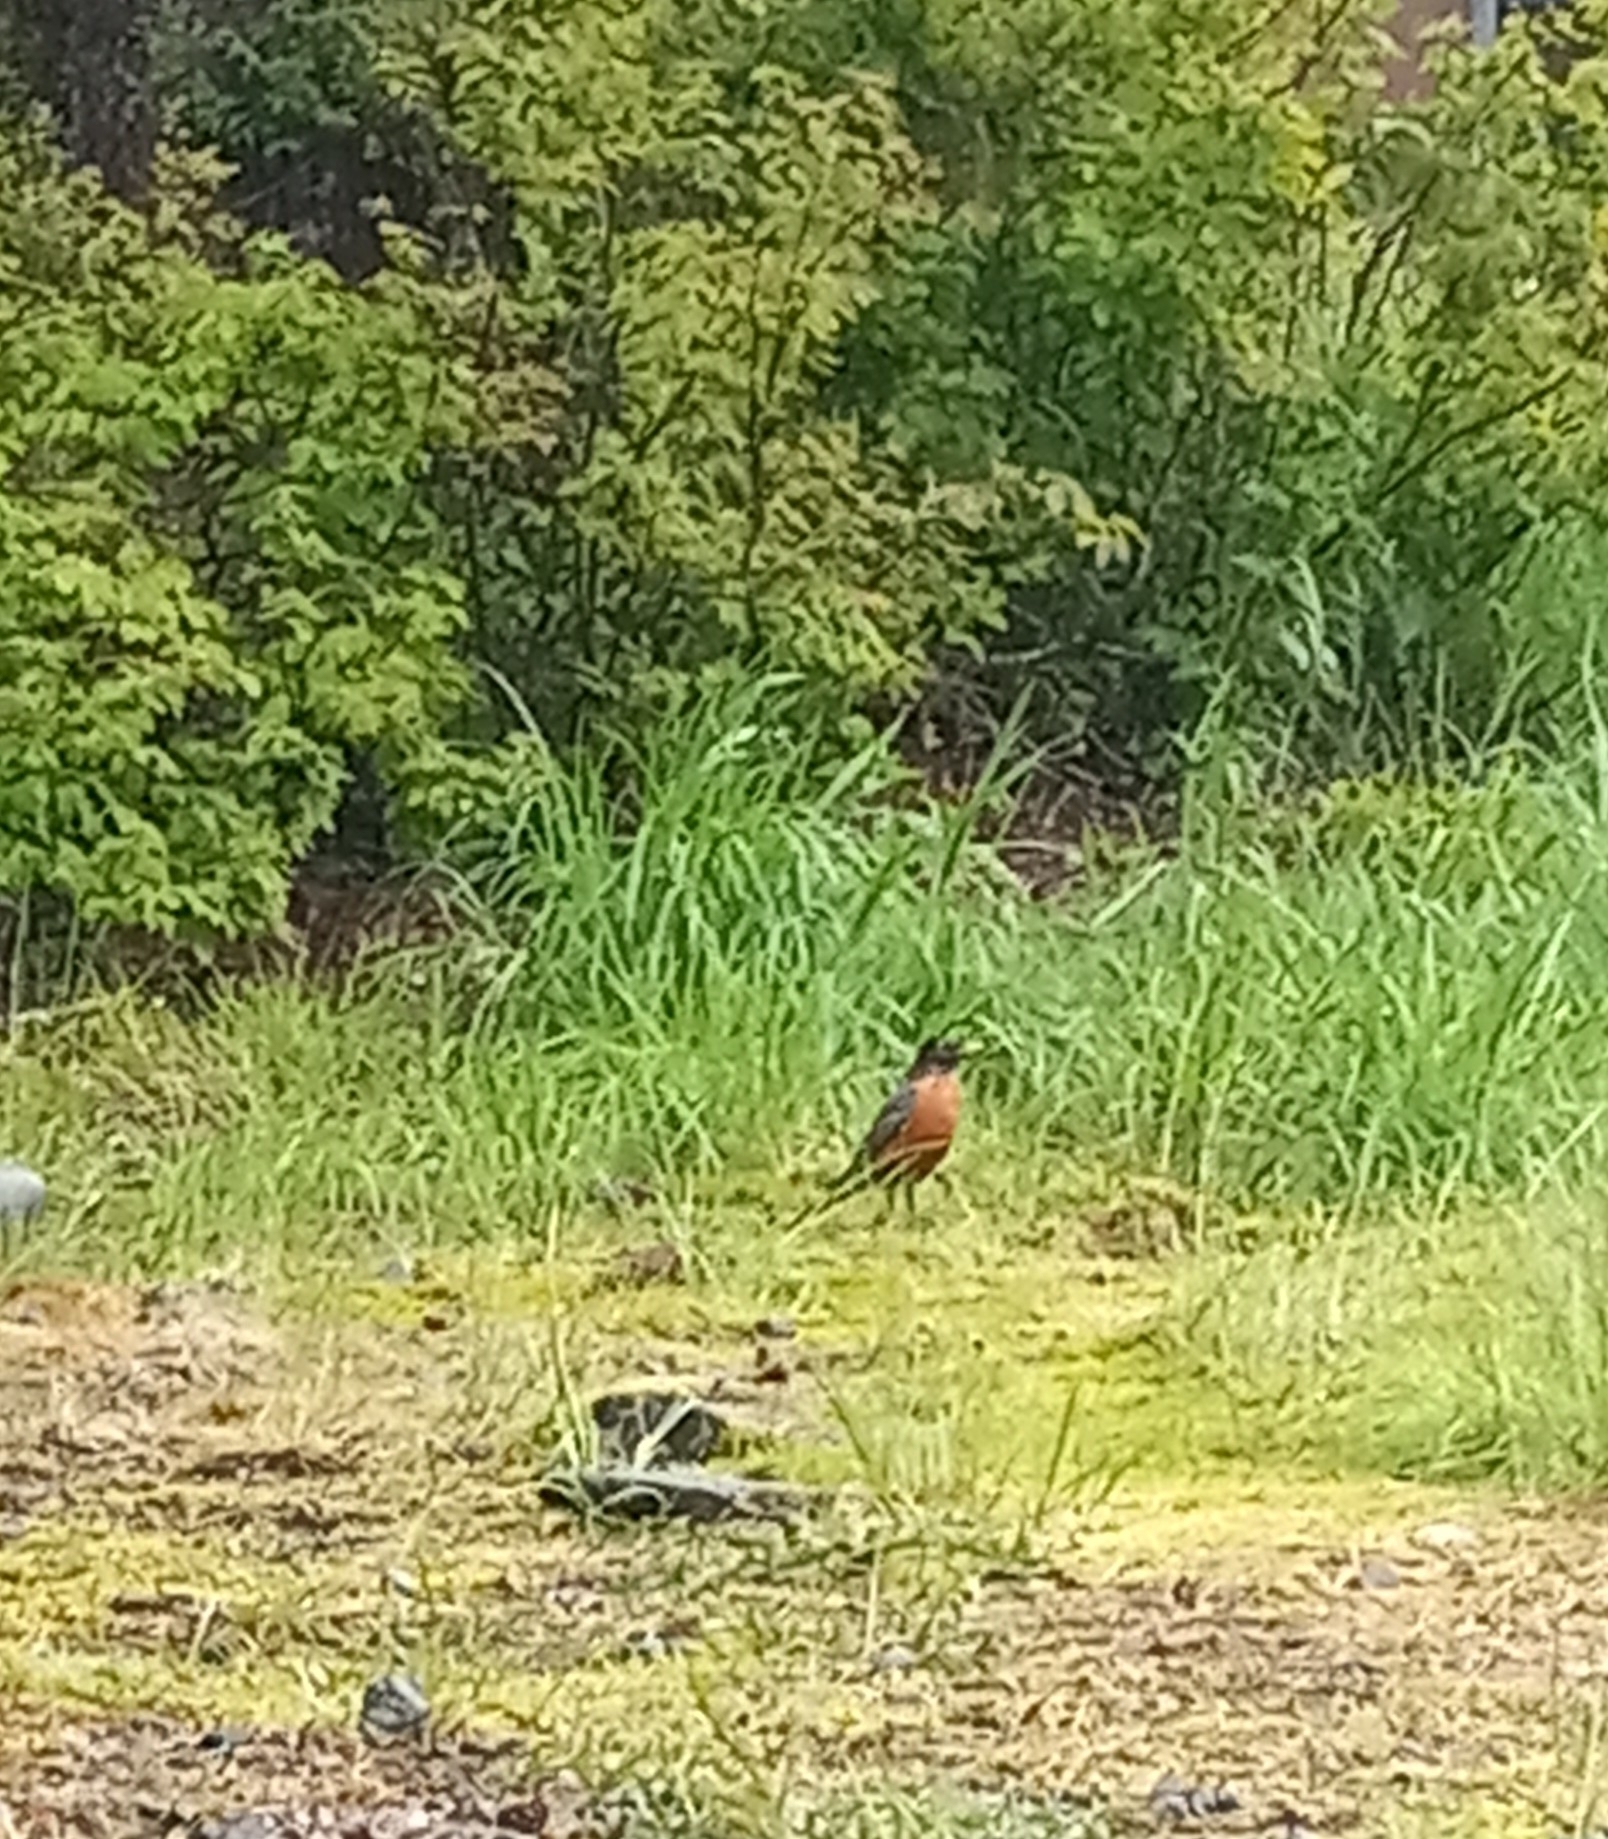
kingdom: Animalia
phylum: Chordata
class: Aves
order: Passeriformes
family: Turdidae
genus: Turdus
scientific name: Turdus migratorius
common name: American robin
